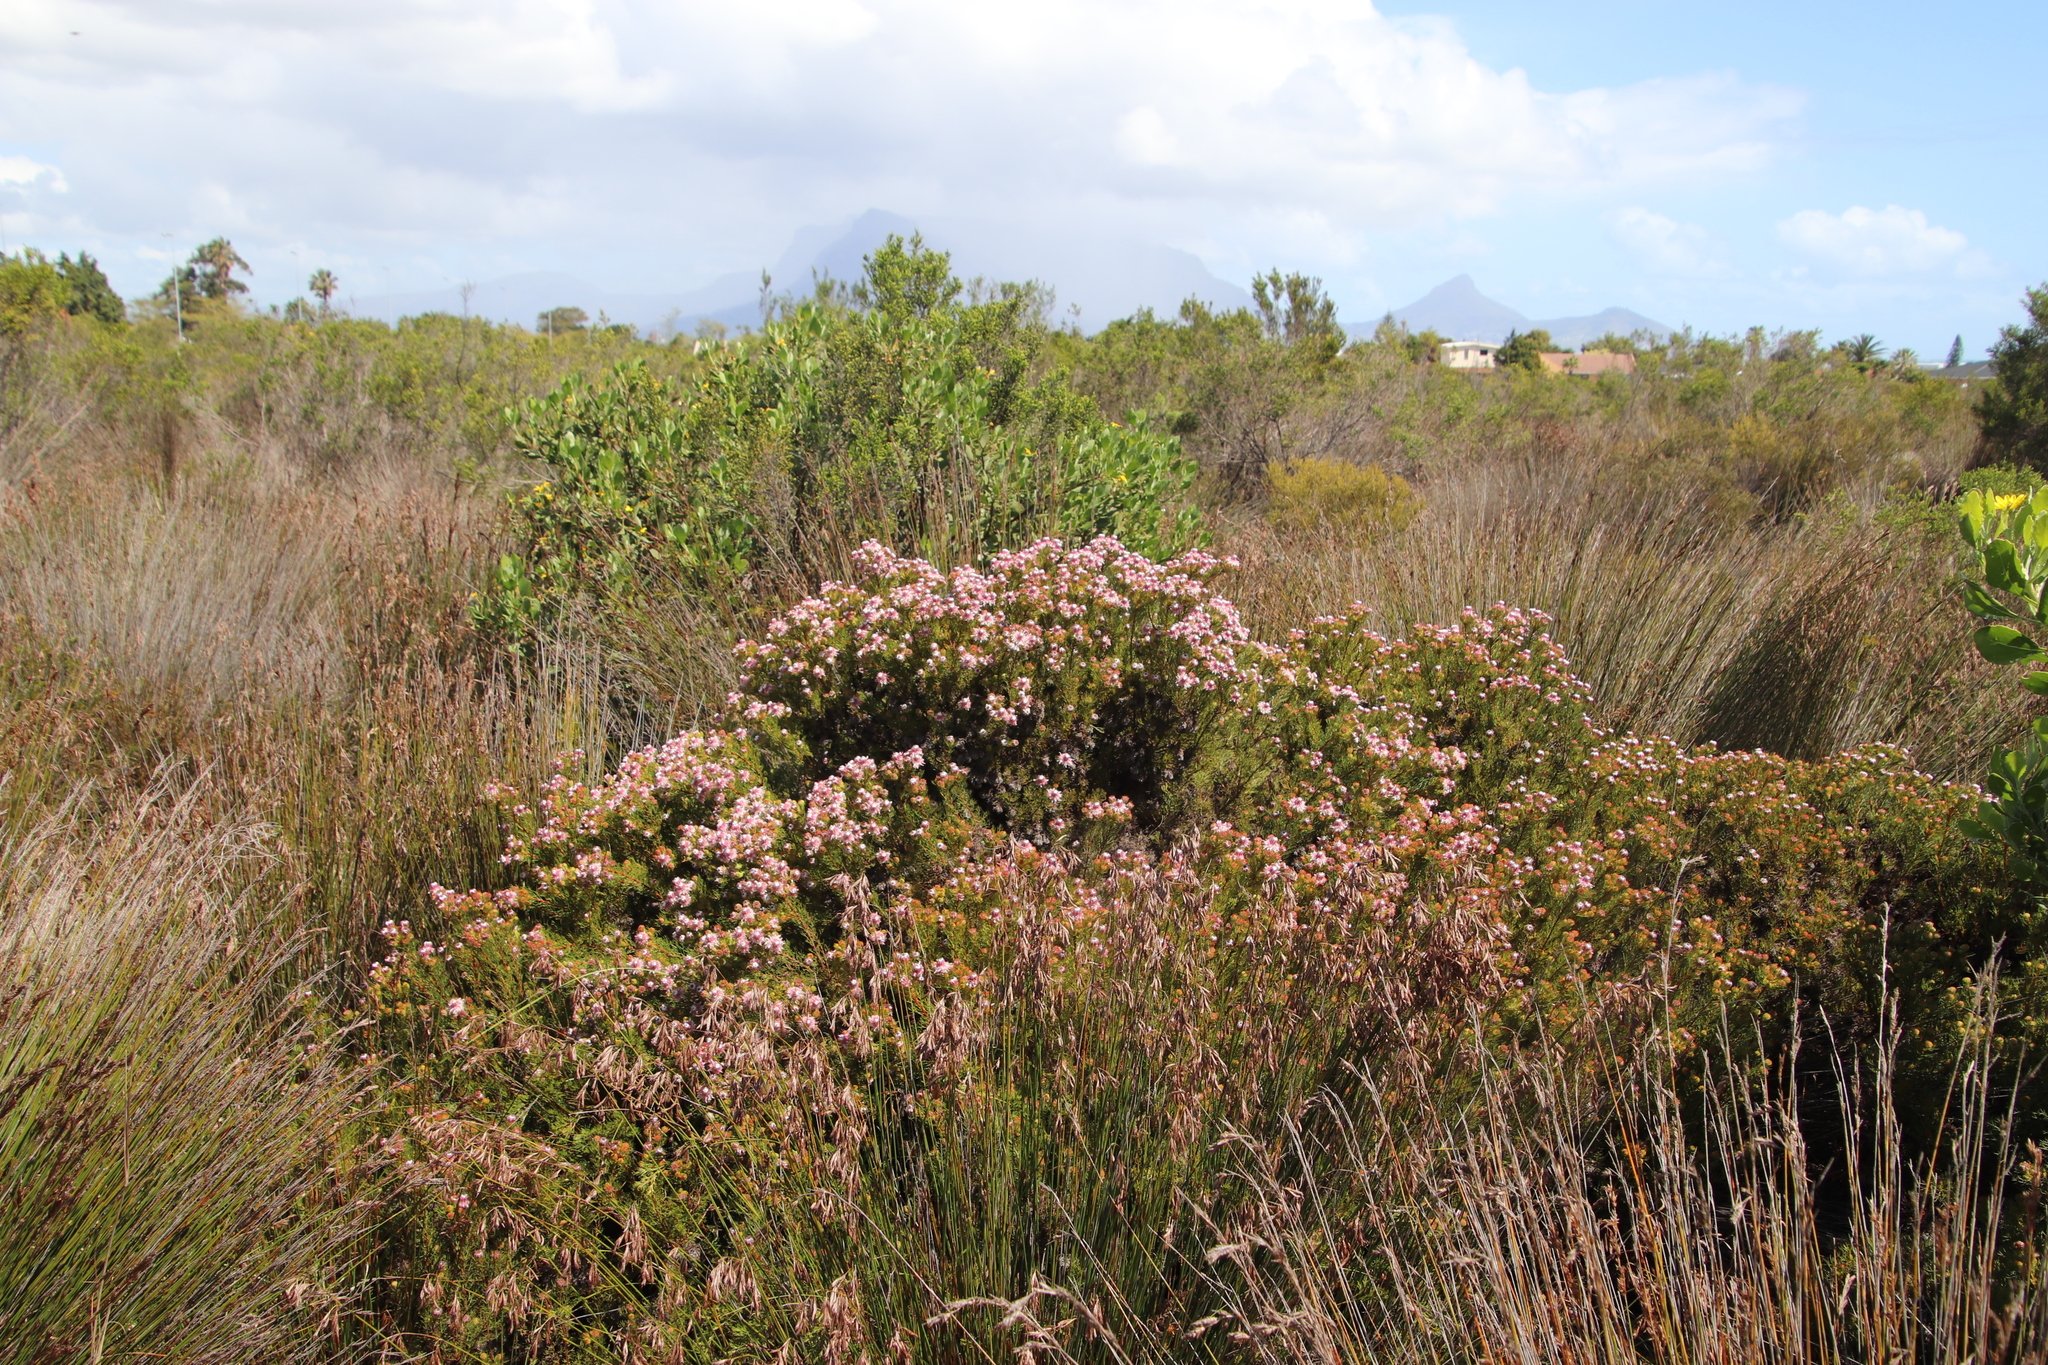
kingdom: Plantae
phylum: Tracheophyta
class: Magnoliopsida
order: Proteales
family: Proteaceae
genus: Serruria
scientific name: Serruria aemula
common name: Strawberry spiderhead
